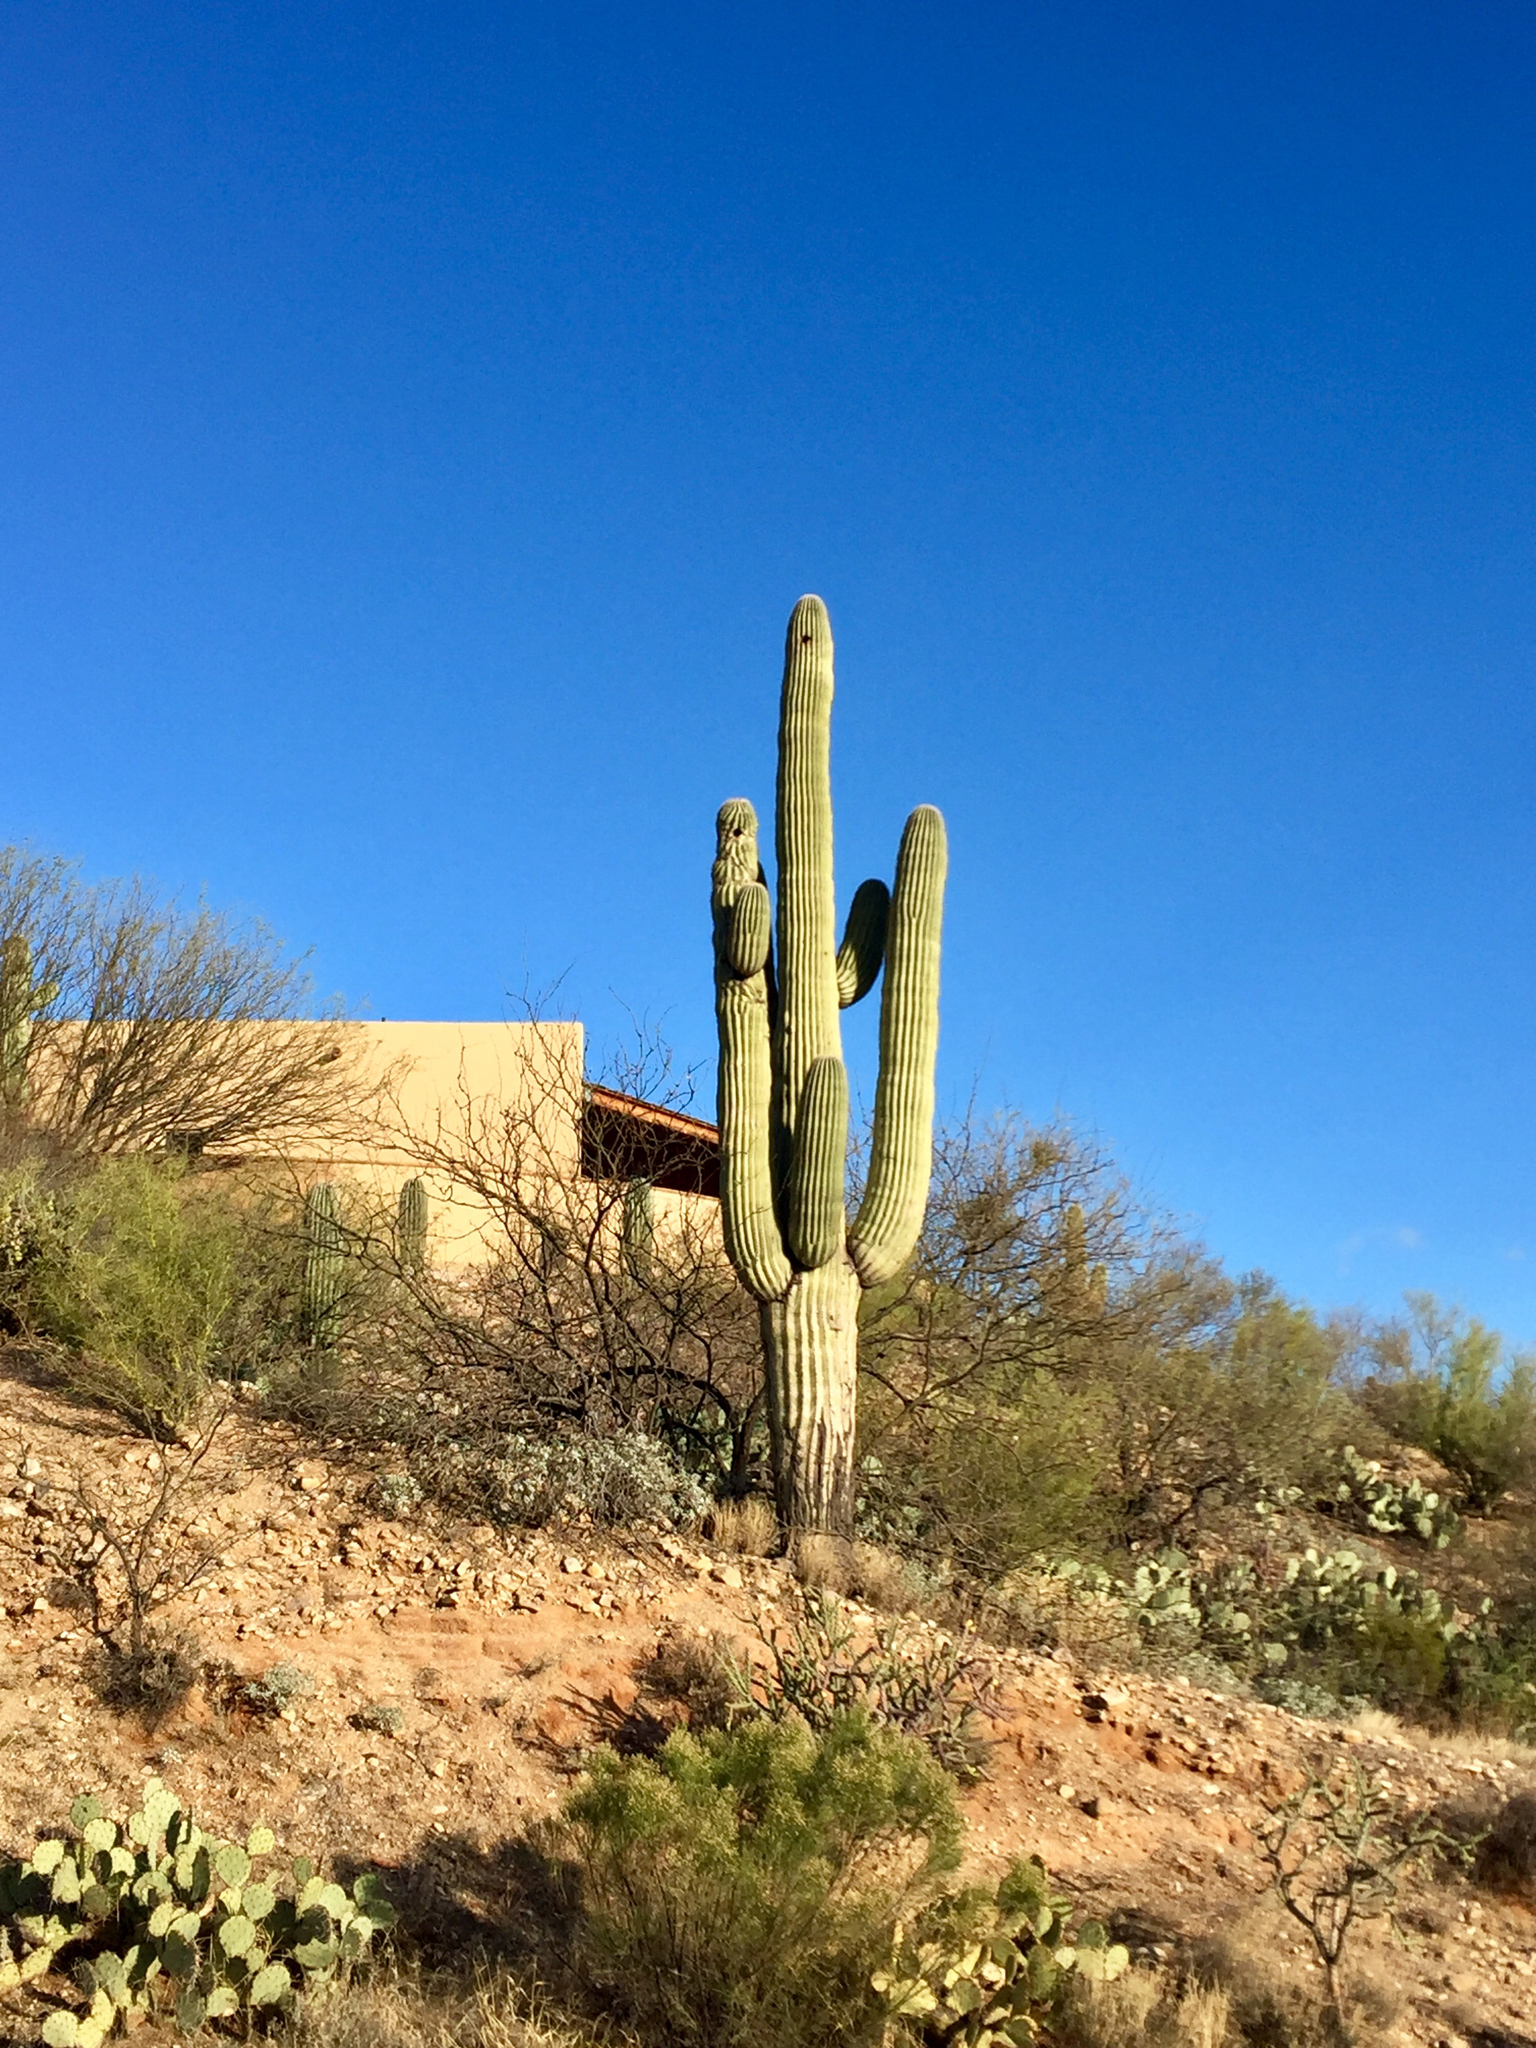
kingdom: Plantae
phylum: Tracheophyta
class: Magnoliopsida
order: Caryophyllales
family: Cactaceae
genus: Carnegiea
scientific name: Carnegiea gigantea
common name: Saguaro
